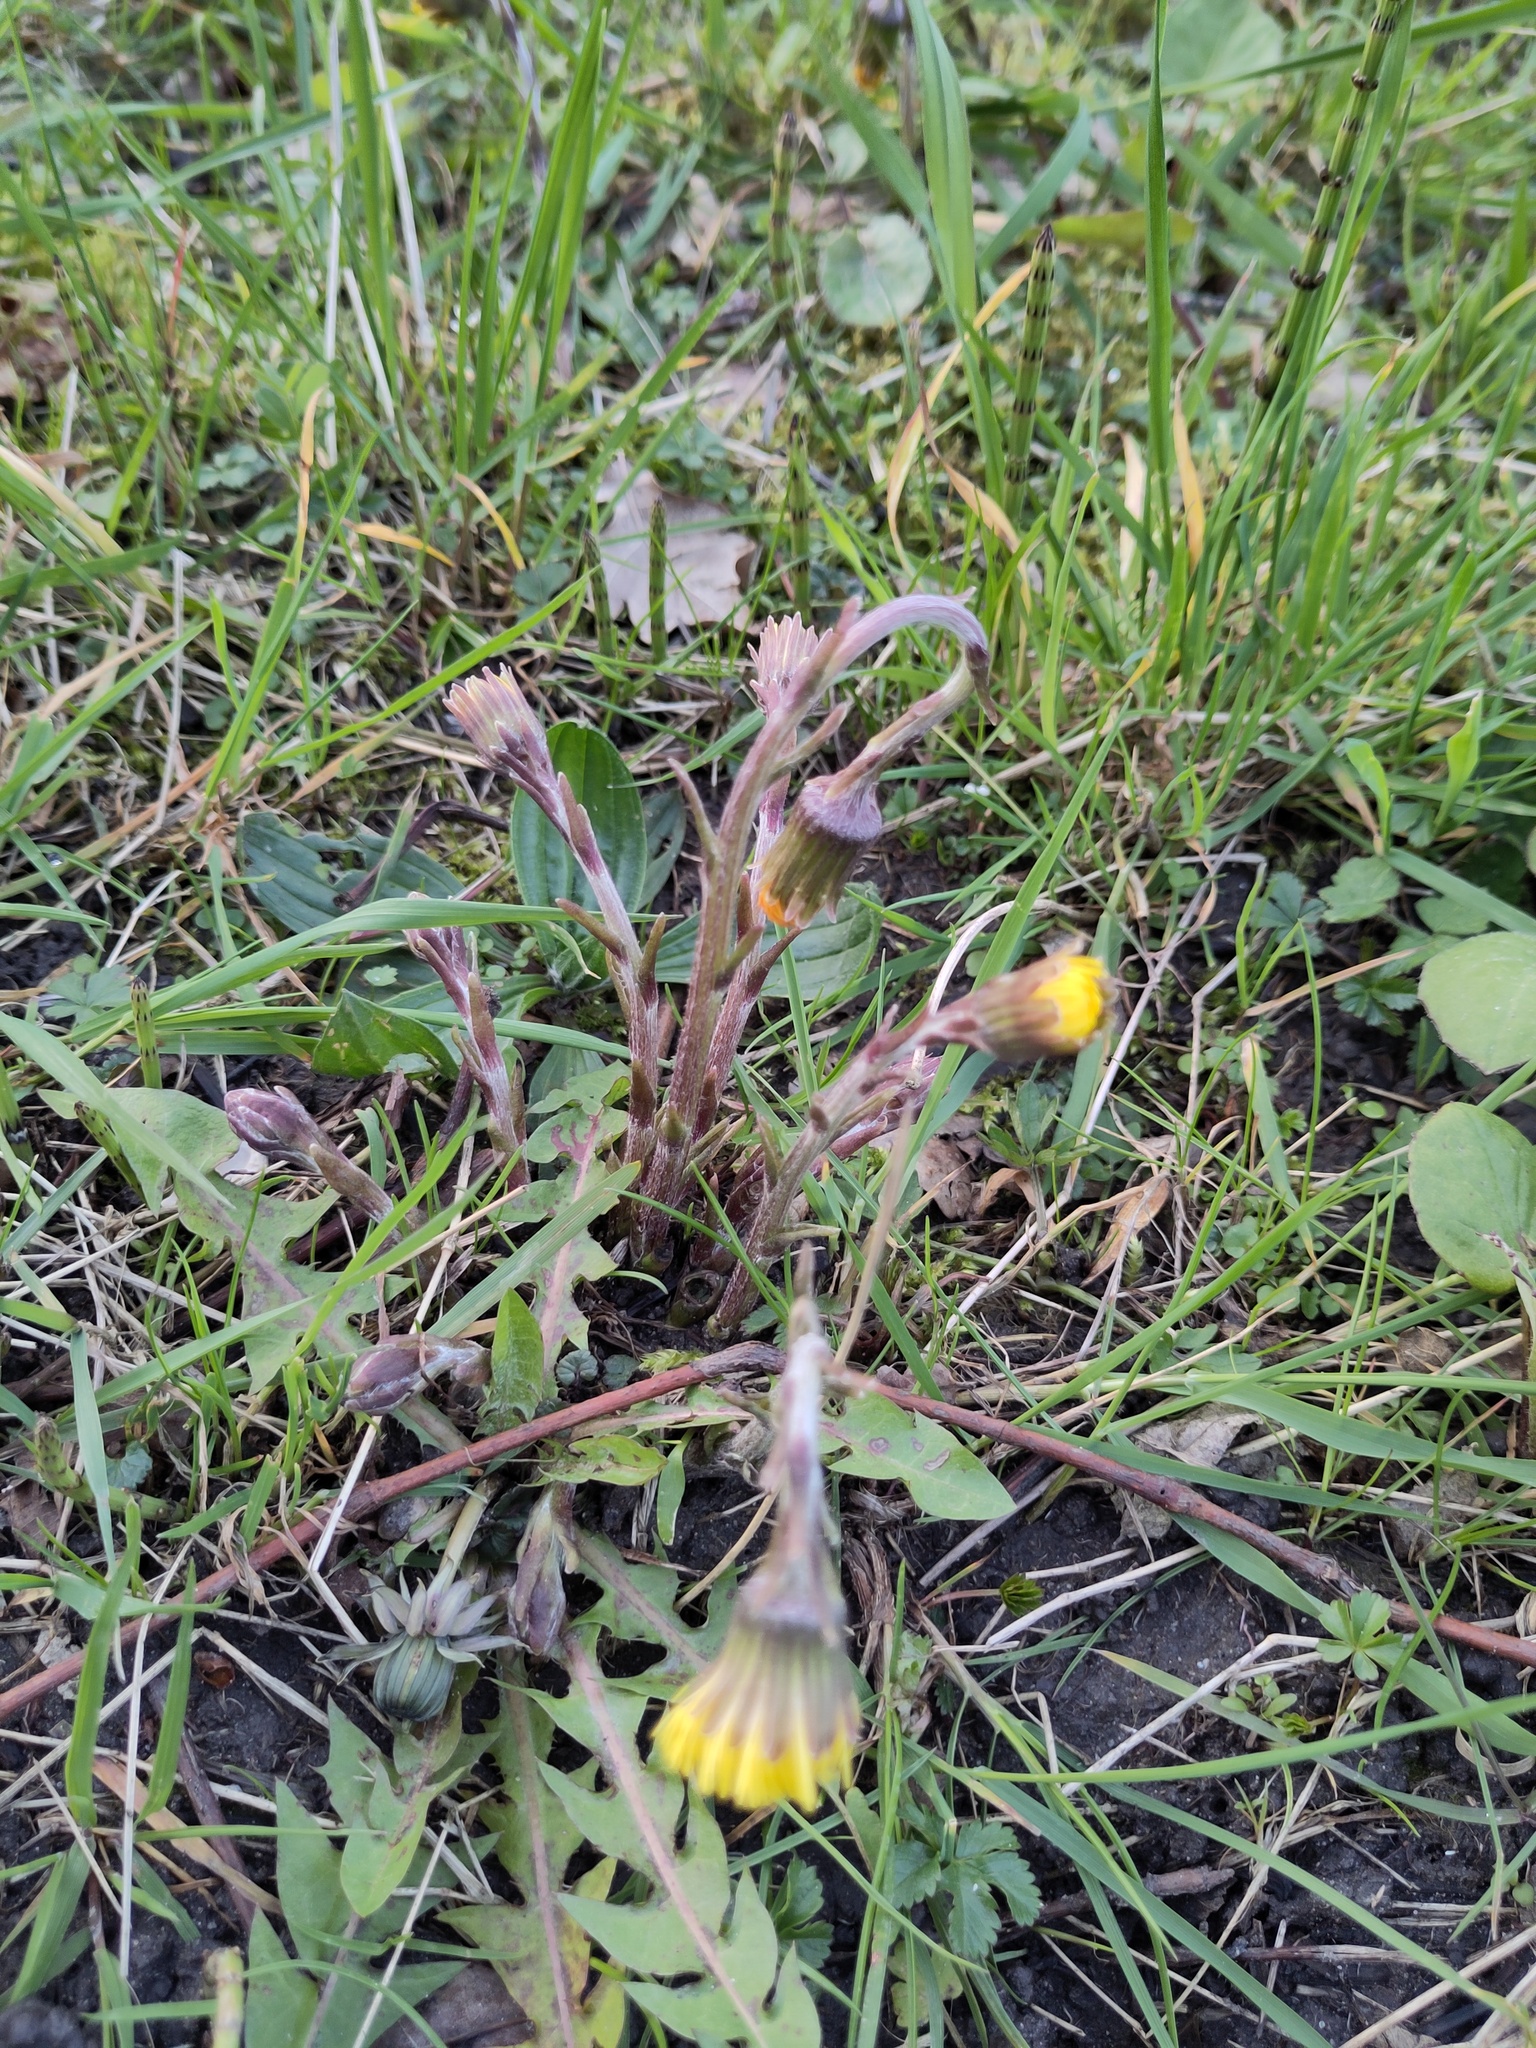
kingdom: Plantae
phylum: Tracheophyta
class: Magnoliopsida
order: Asterales
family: Asteraceae
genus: Tussilago
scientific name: Tussilago farfara
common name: Coltsfoot
